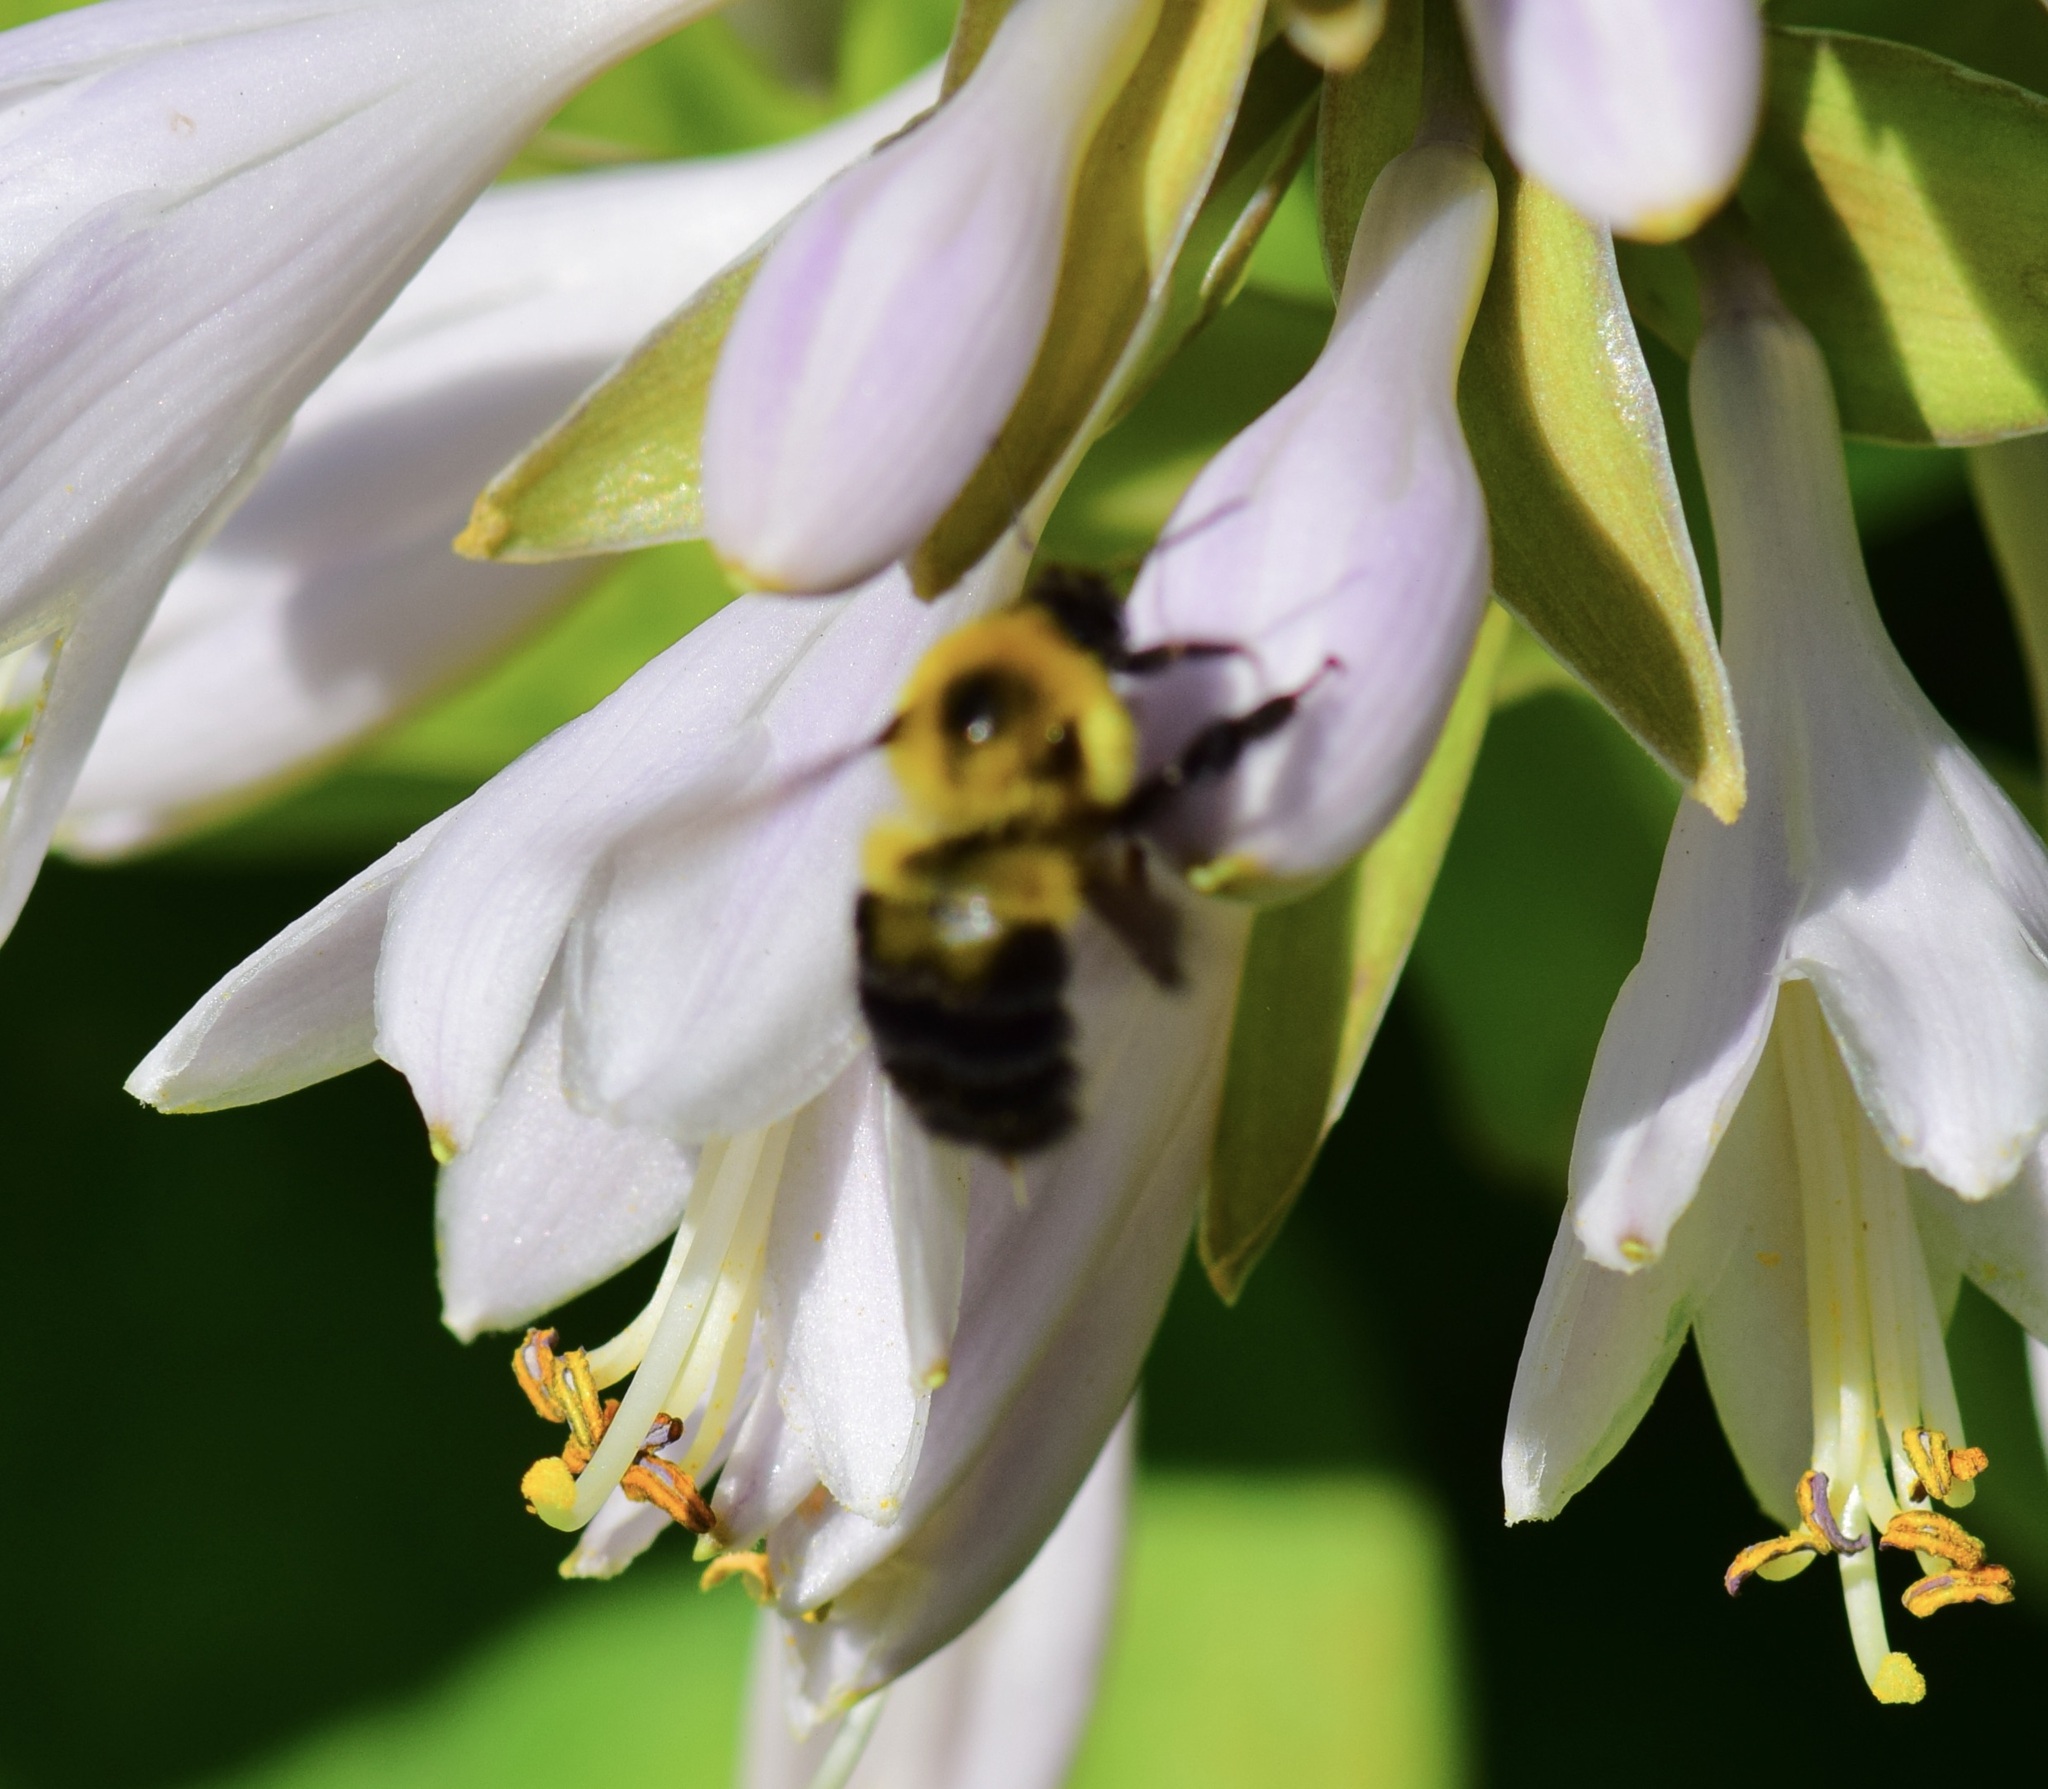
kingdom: Animalia
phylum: Arthropoda
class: Insecta
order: Hymenoptera
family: Apidae
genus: Bombus
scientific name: Bombus bimaculatus
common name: Two-spotted bumble bee
